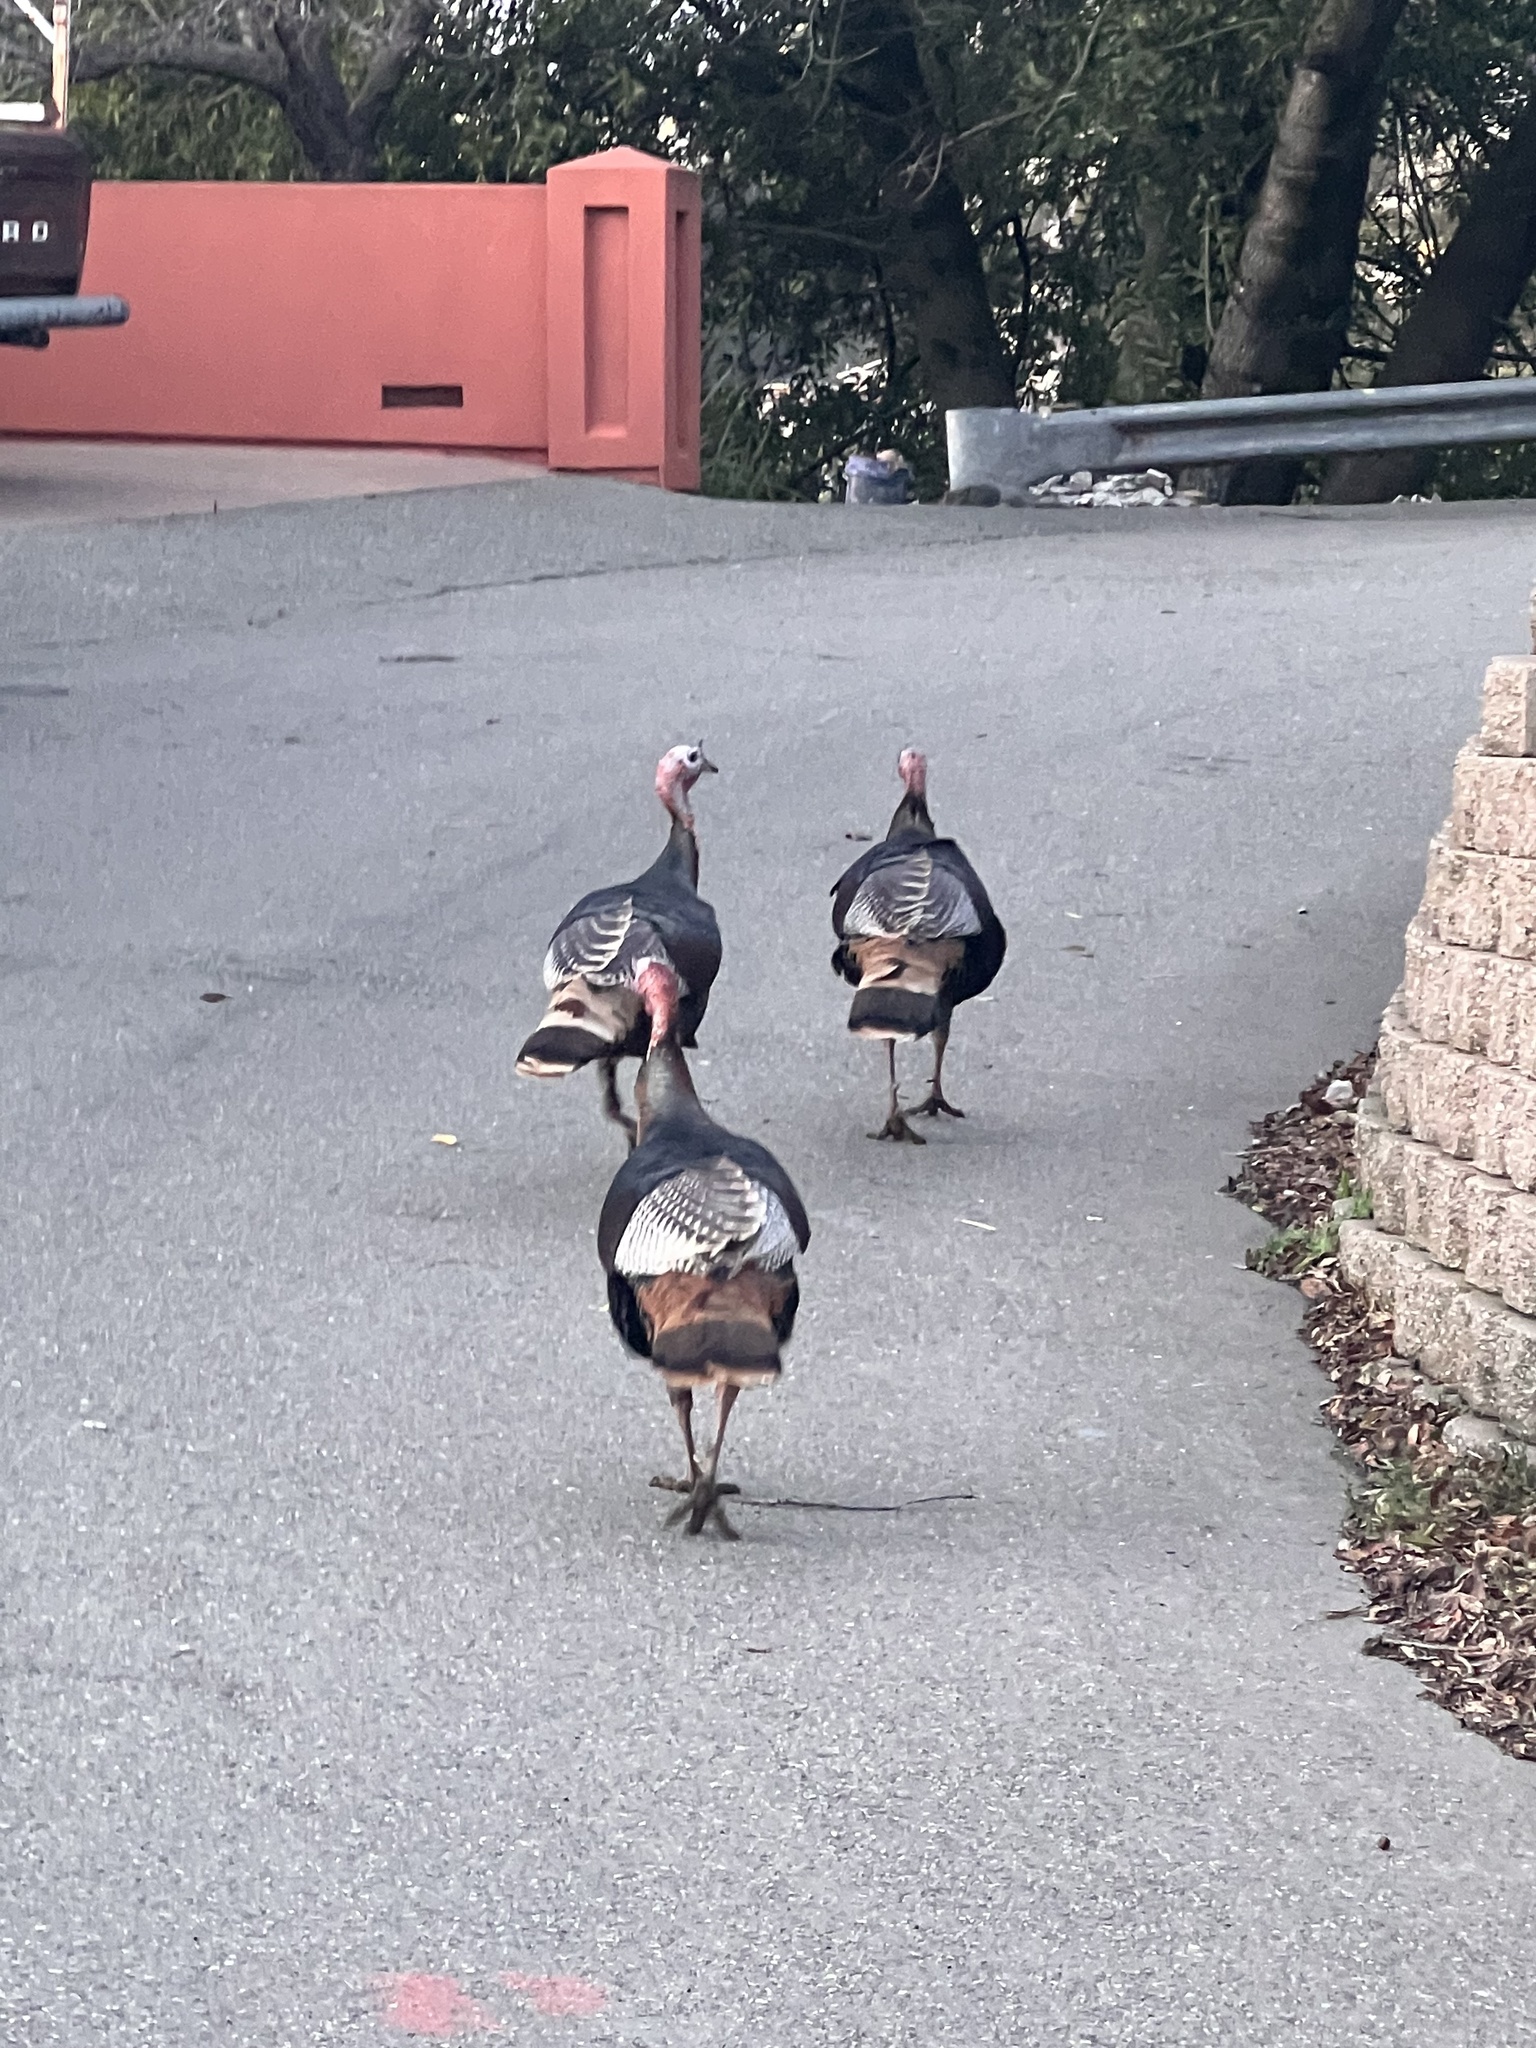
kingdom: Animalia
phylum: Chordata
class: Aves
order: Galliformes
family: Phasianidae
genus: Meleagris
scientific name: Meleagris gallopavo
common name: Wild turkey
